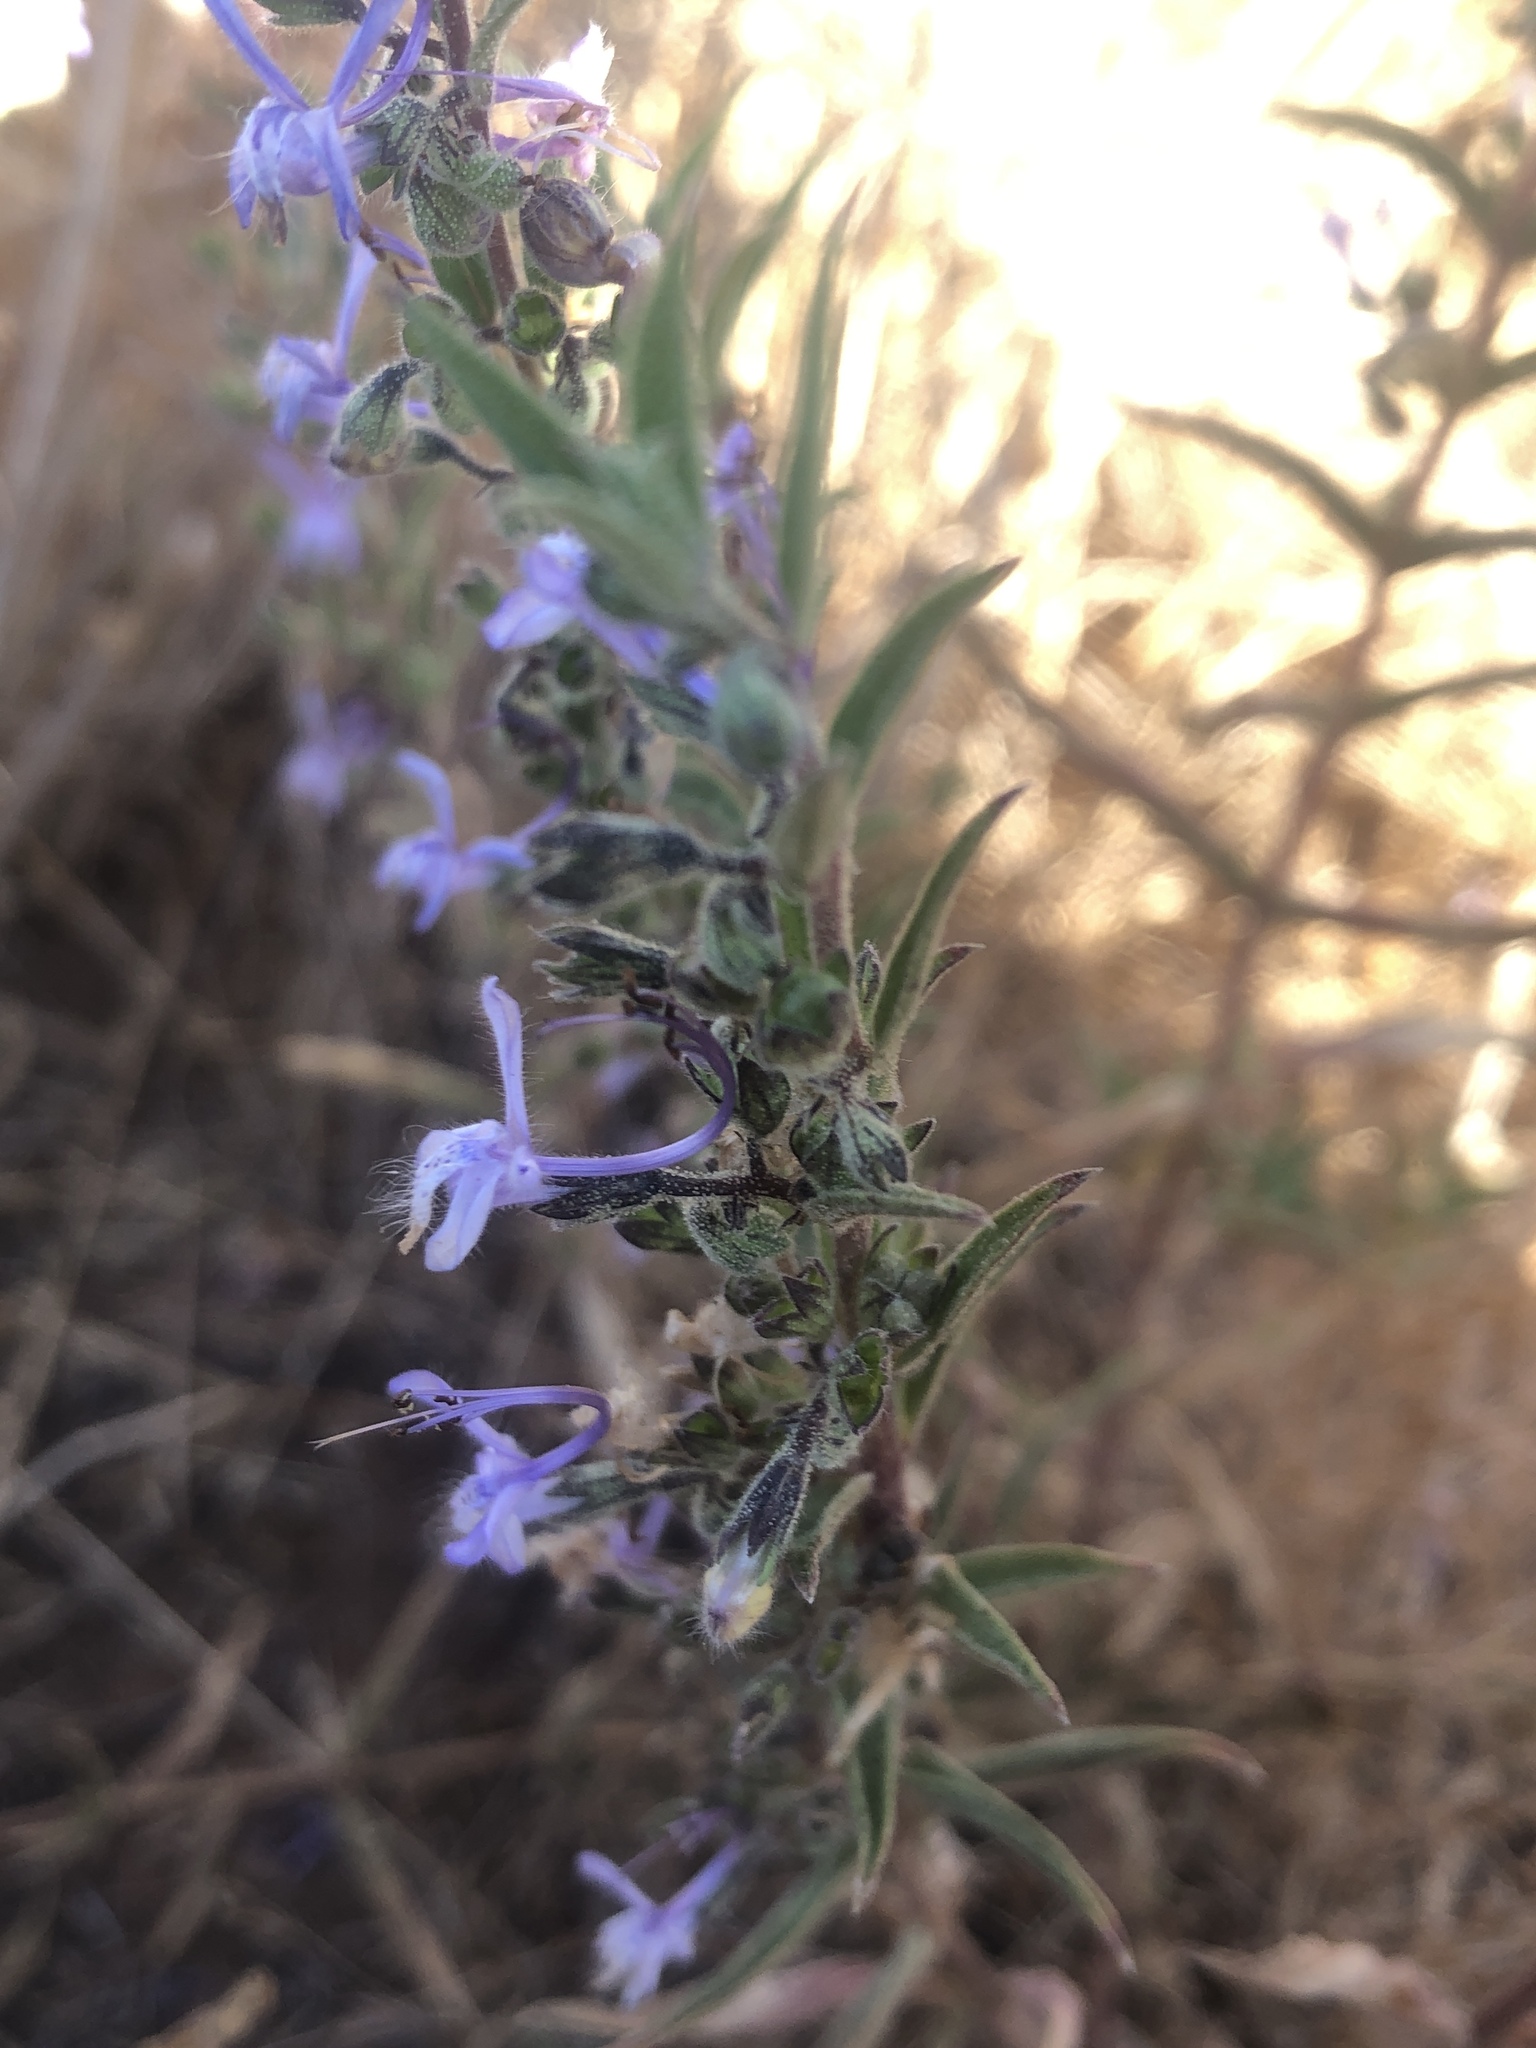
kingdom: Plantae
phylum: Tracheophyta
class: Magnoliopsida
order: Lamiales
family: Lamiaceae
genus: Trichostema
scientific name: Trichostema lanceolatum
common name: Vinegar-weed
